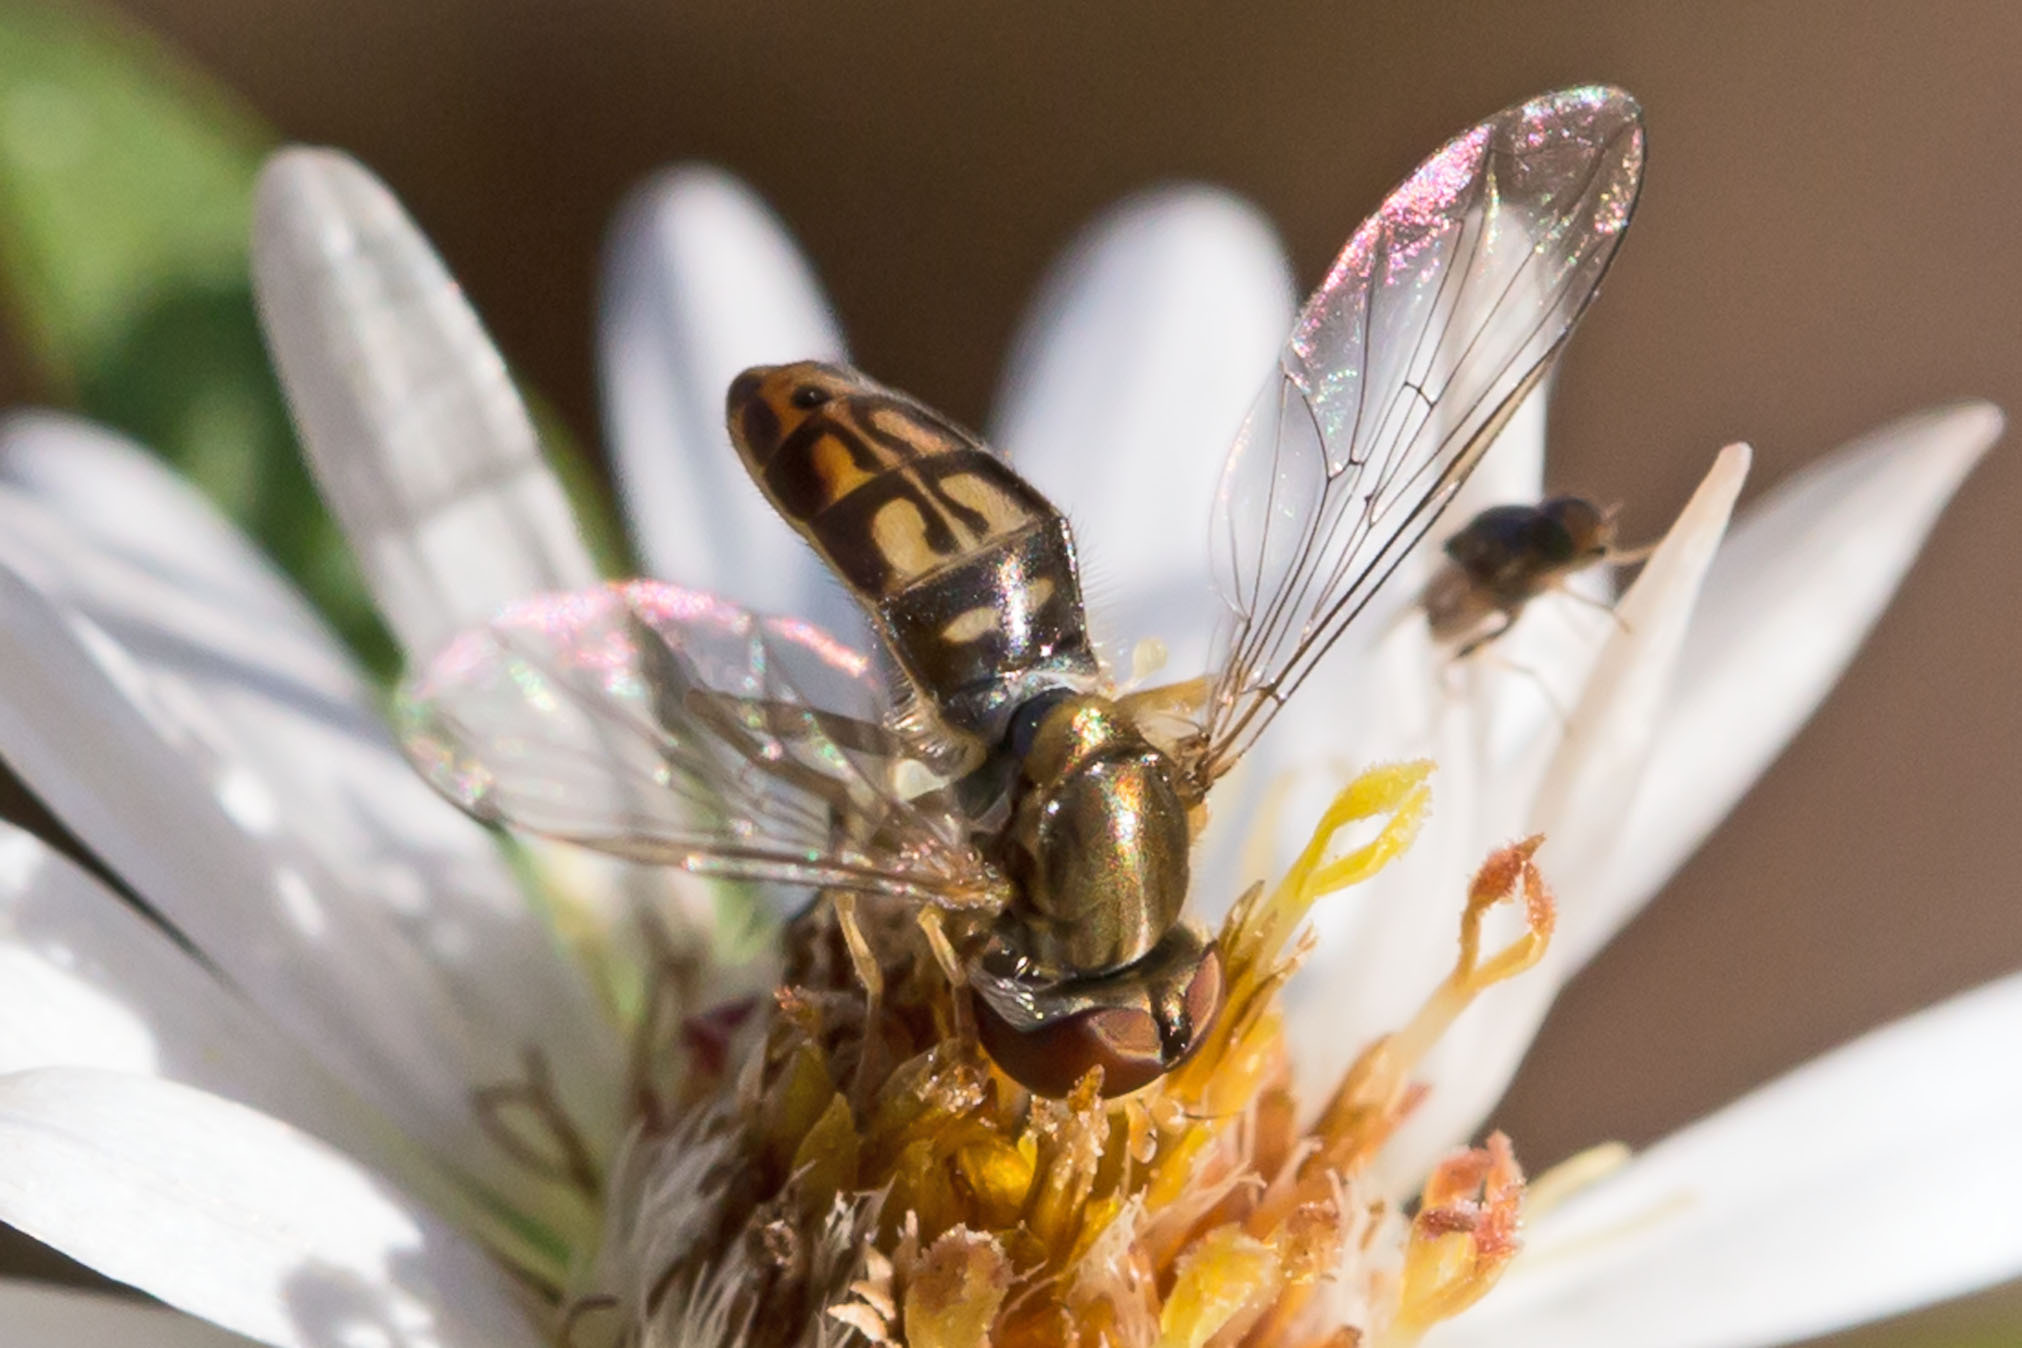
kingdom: Animalia
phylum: Arthropoda
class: Insecta
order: Diptera
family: Syrphidae
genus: Toxomerus
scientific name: Toxomerus marginatus
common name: Syrphid fly
